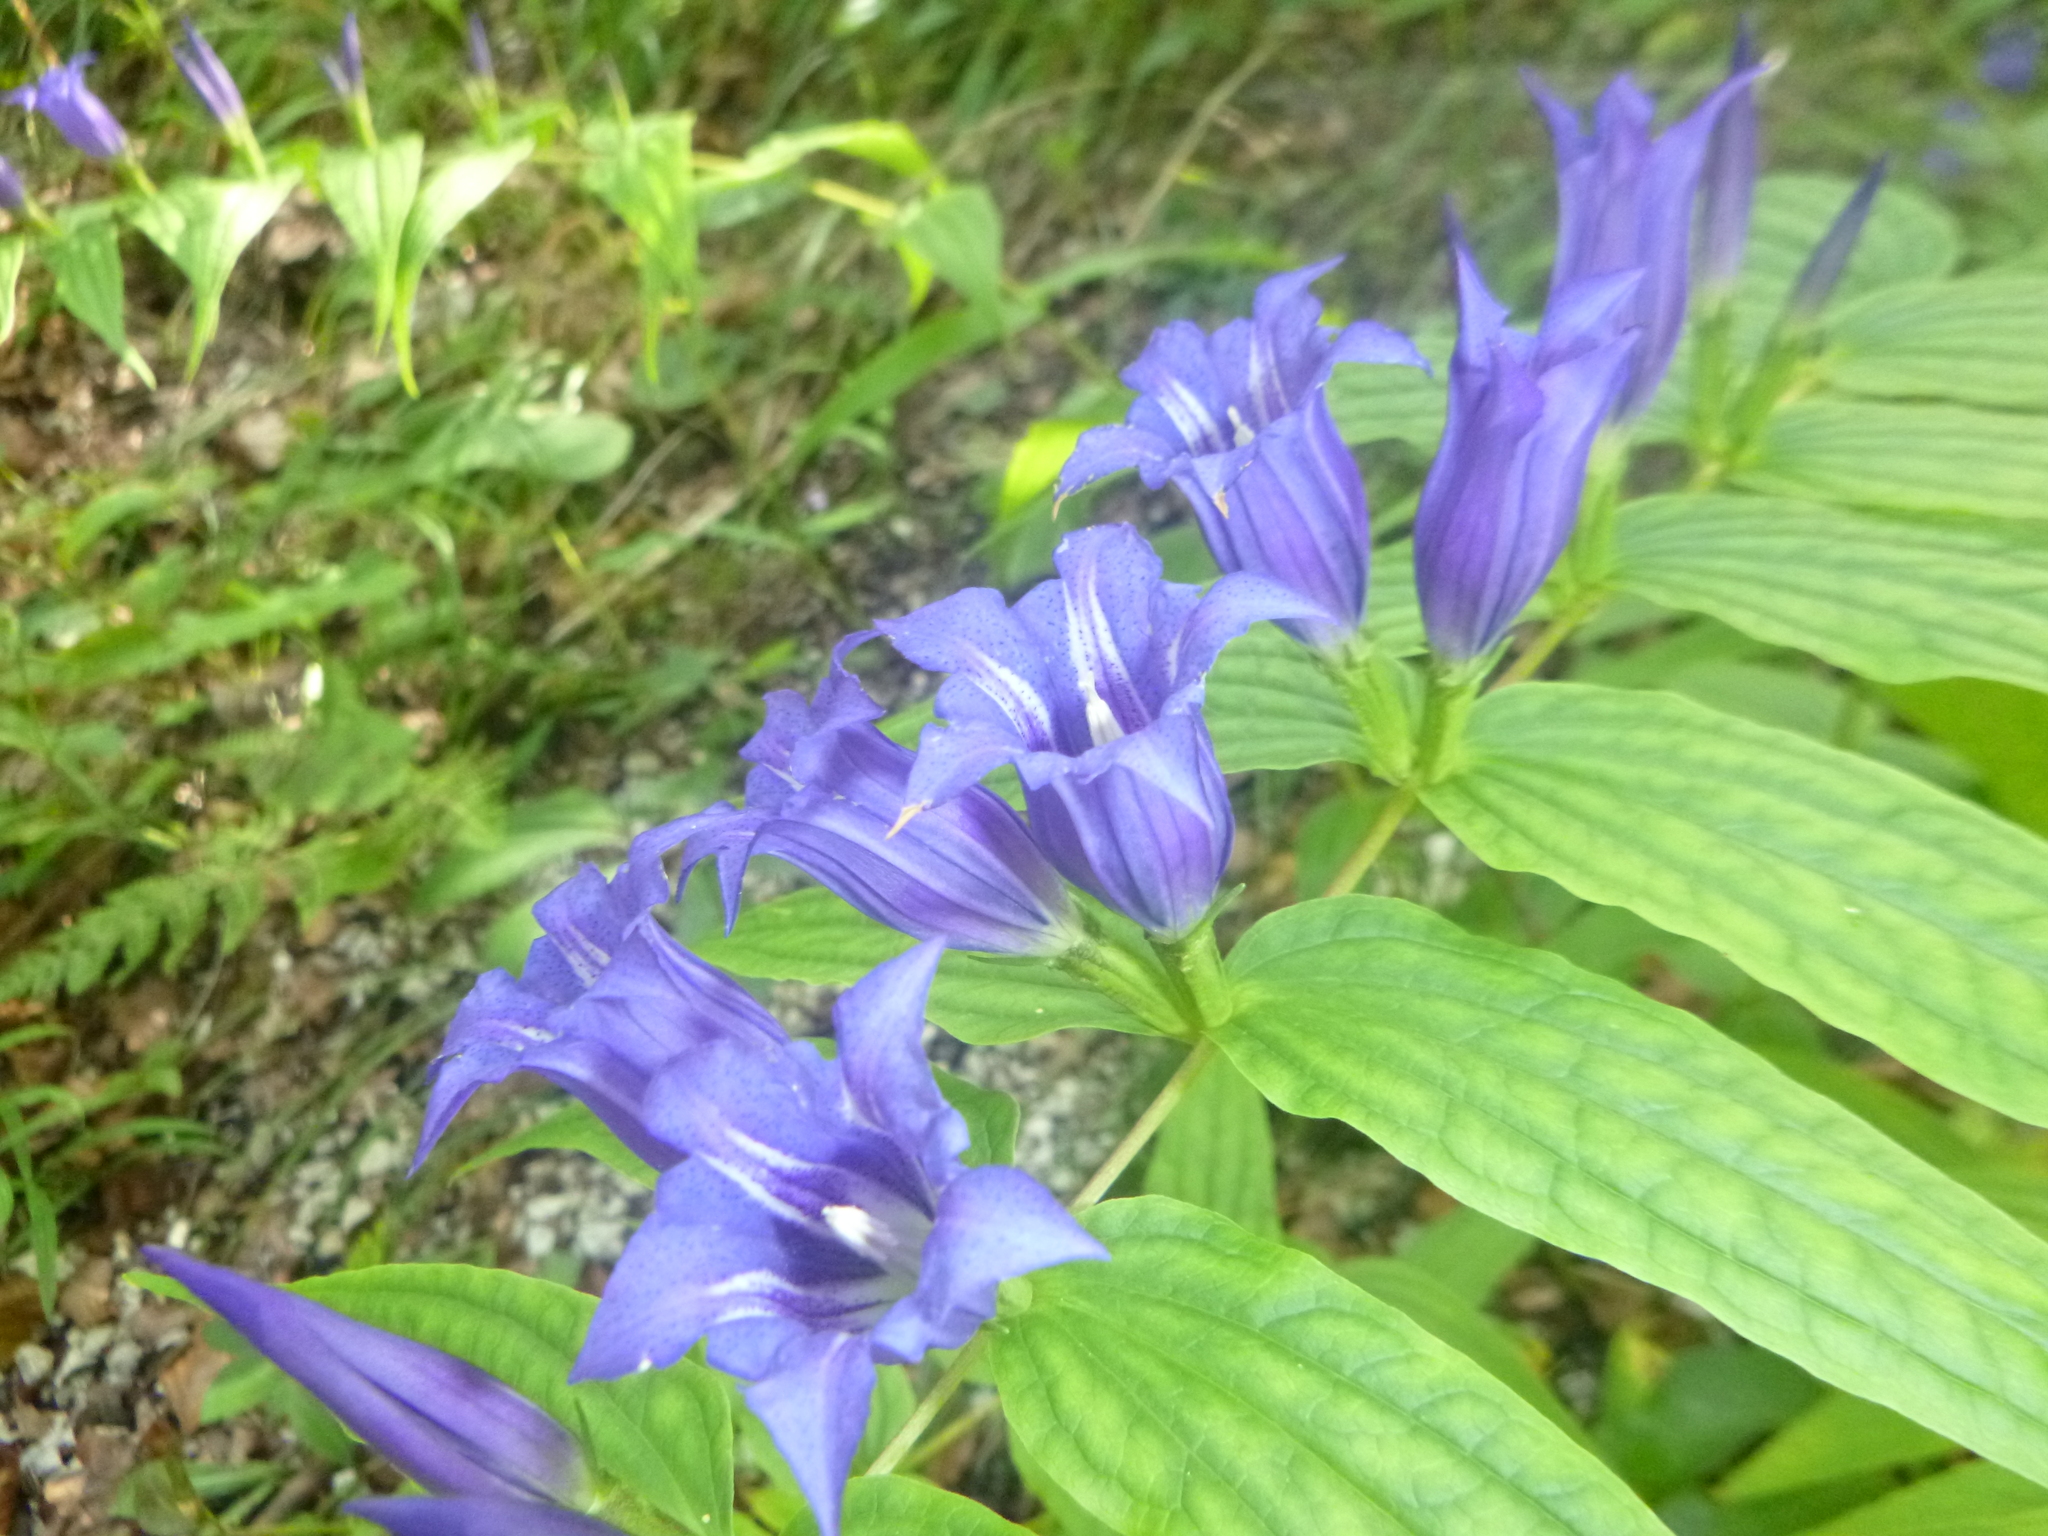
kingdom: Plantae
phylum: Tracheophyta
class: Magnoliopsida
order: Gentianales
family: Gentianaceae
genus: Gentiana
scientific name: Gentiana asclepiadea
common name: Willow gentian
